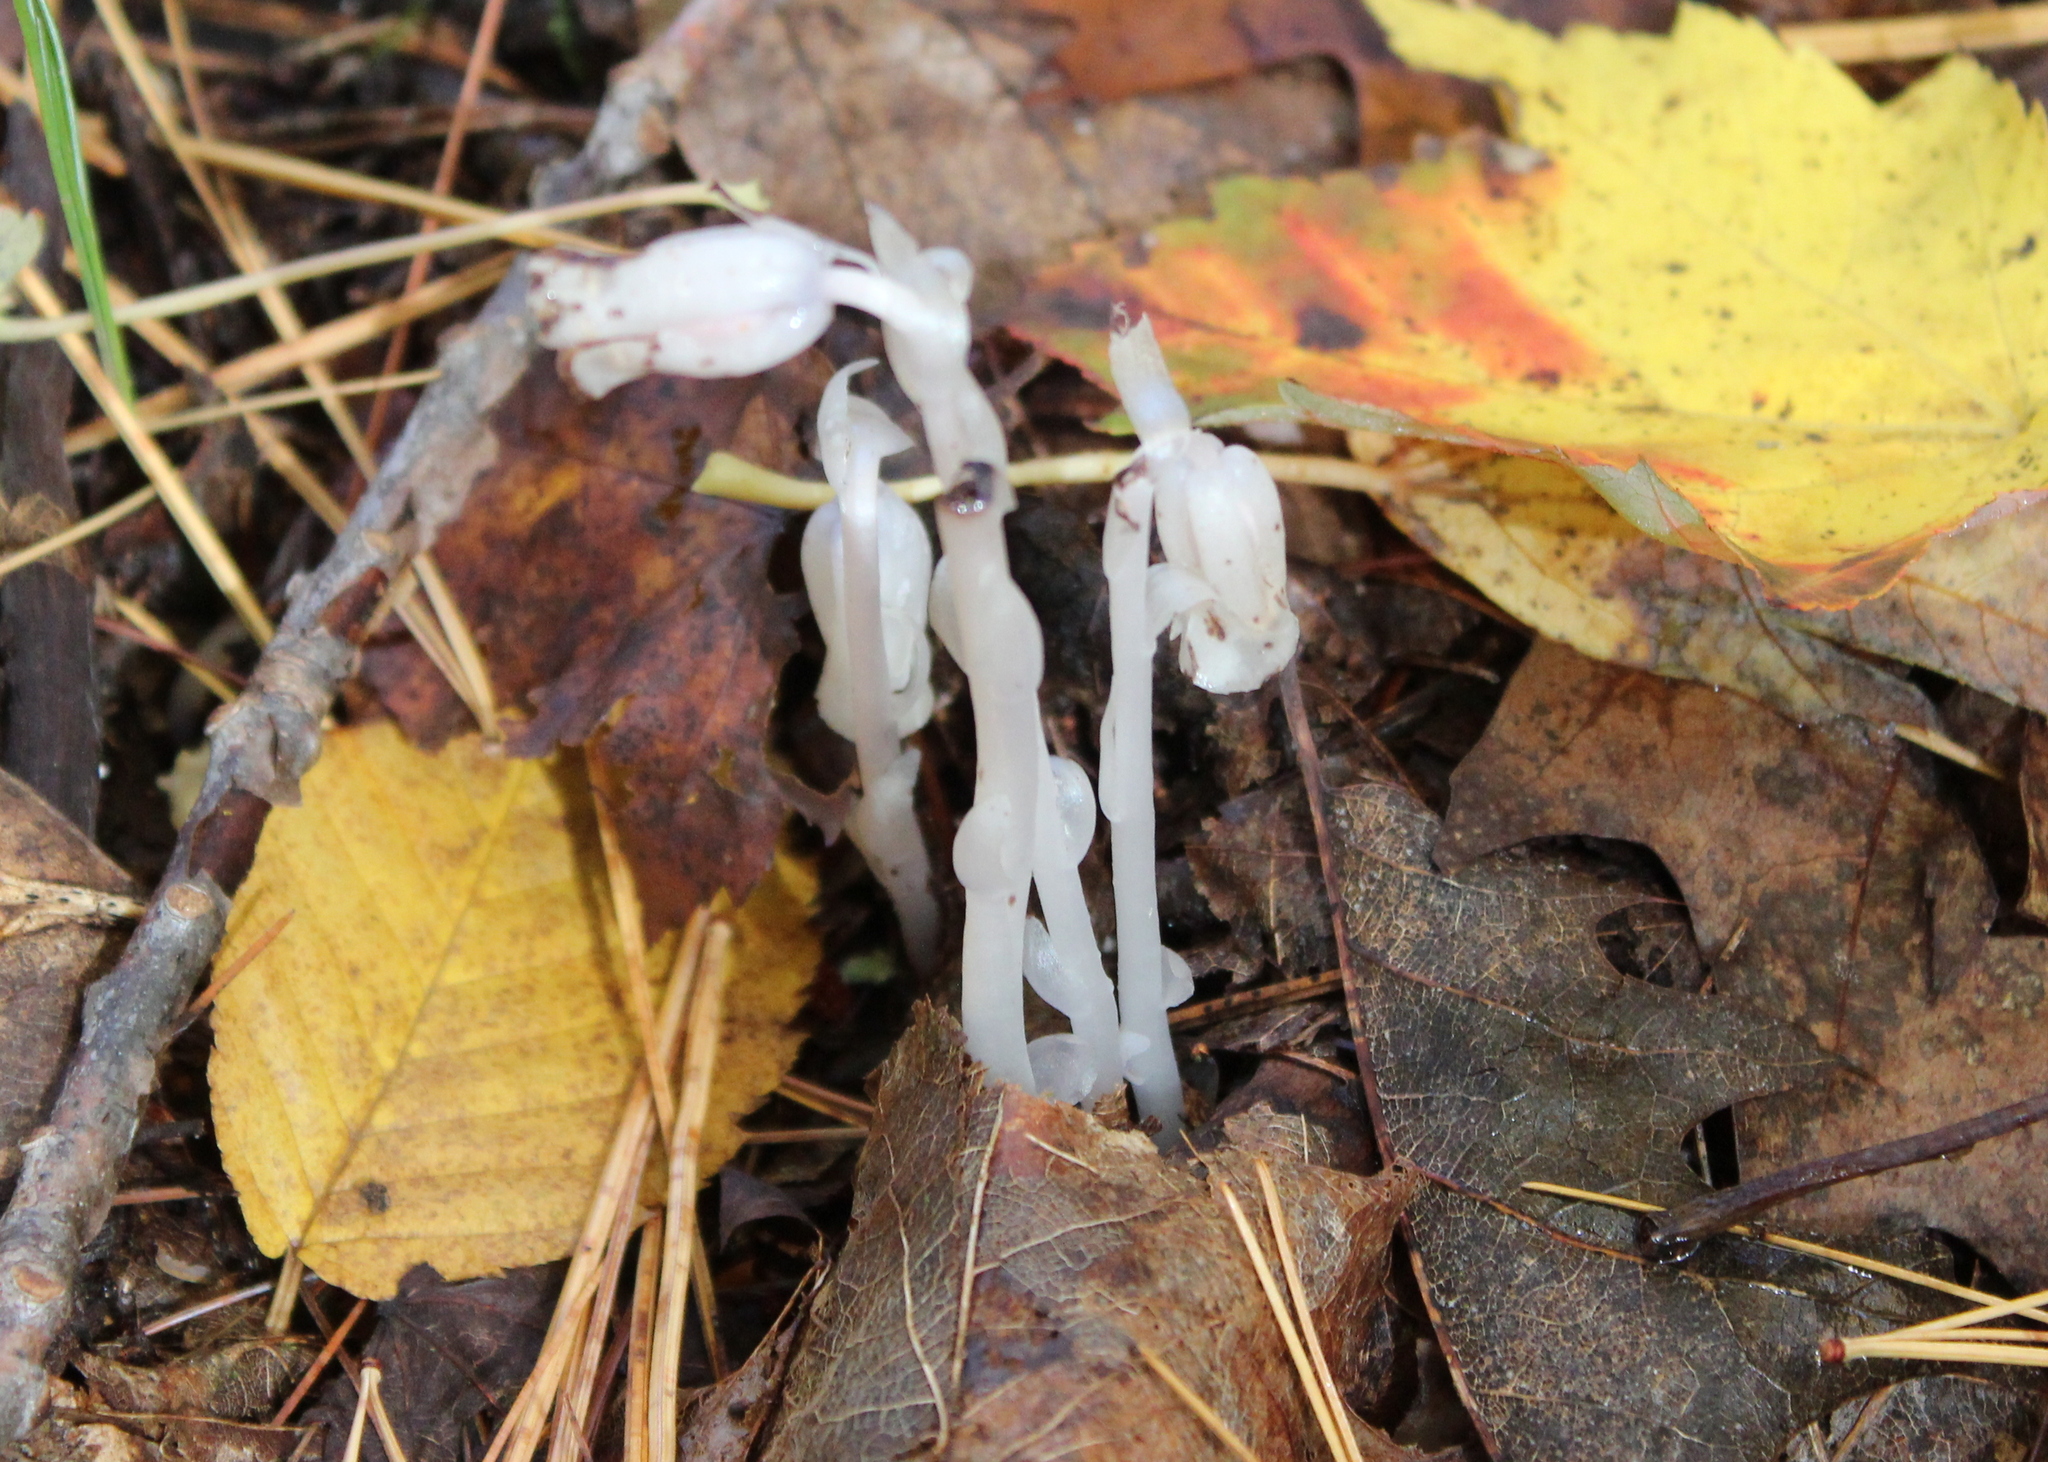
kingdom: Plantae
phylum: Tracheophyta
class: Magnoliopsida
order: Ericales
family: Ericaceae
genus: Monotropa
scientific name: Monotropa uniflora
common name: Convulsion root
